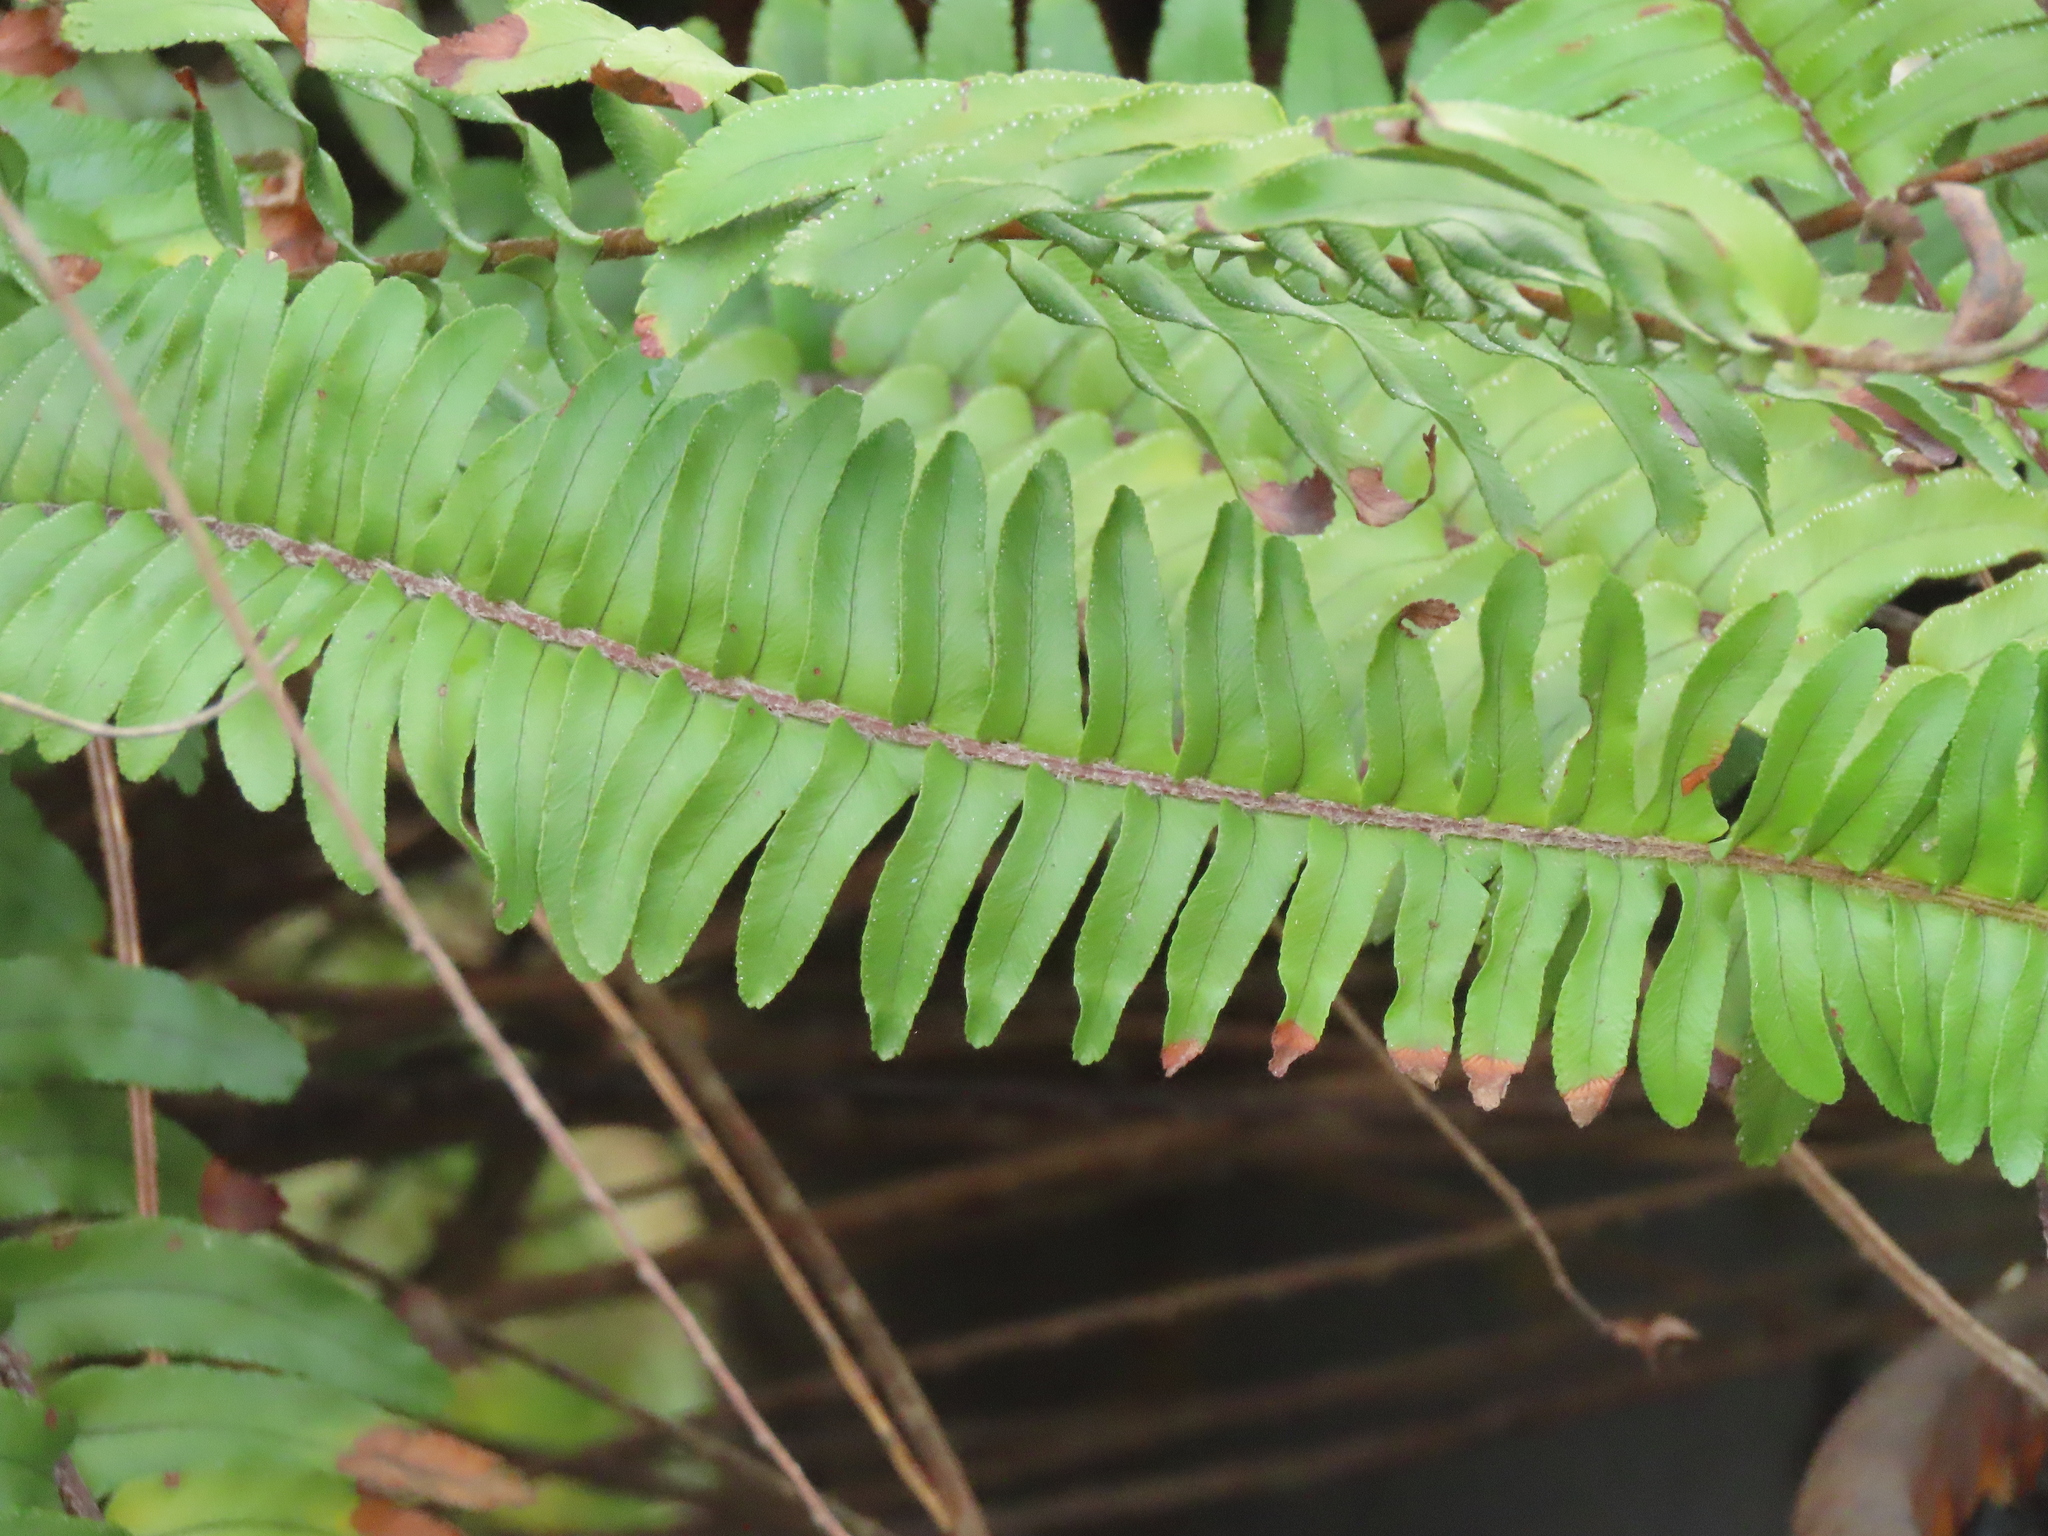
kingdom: Plantae
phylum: Tracheophyta
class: Polypodiopsida
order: Polypodiales
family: Nephrolepidaceae
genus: Nephrolepis
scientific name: Nephrolepis cordifolia
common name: Narrow swordfern
